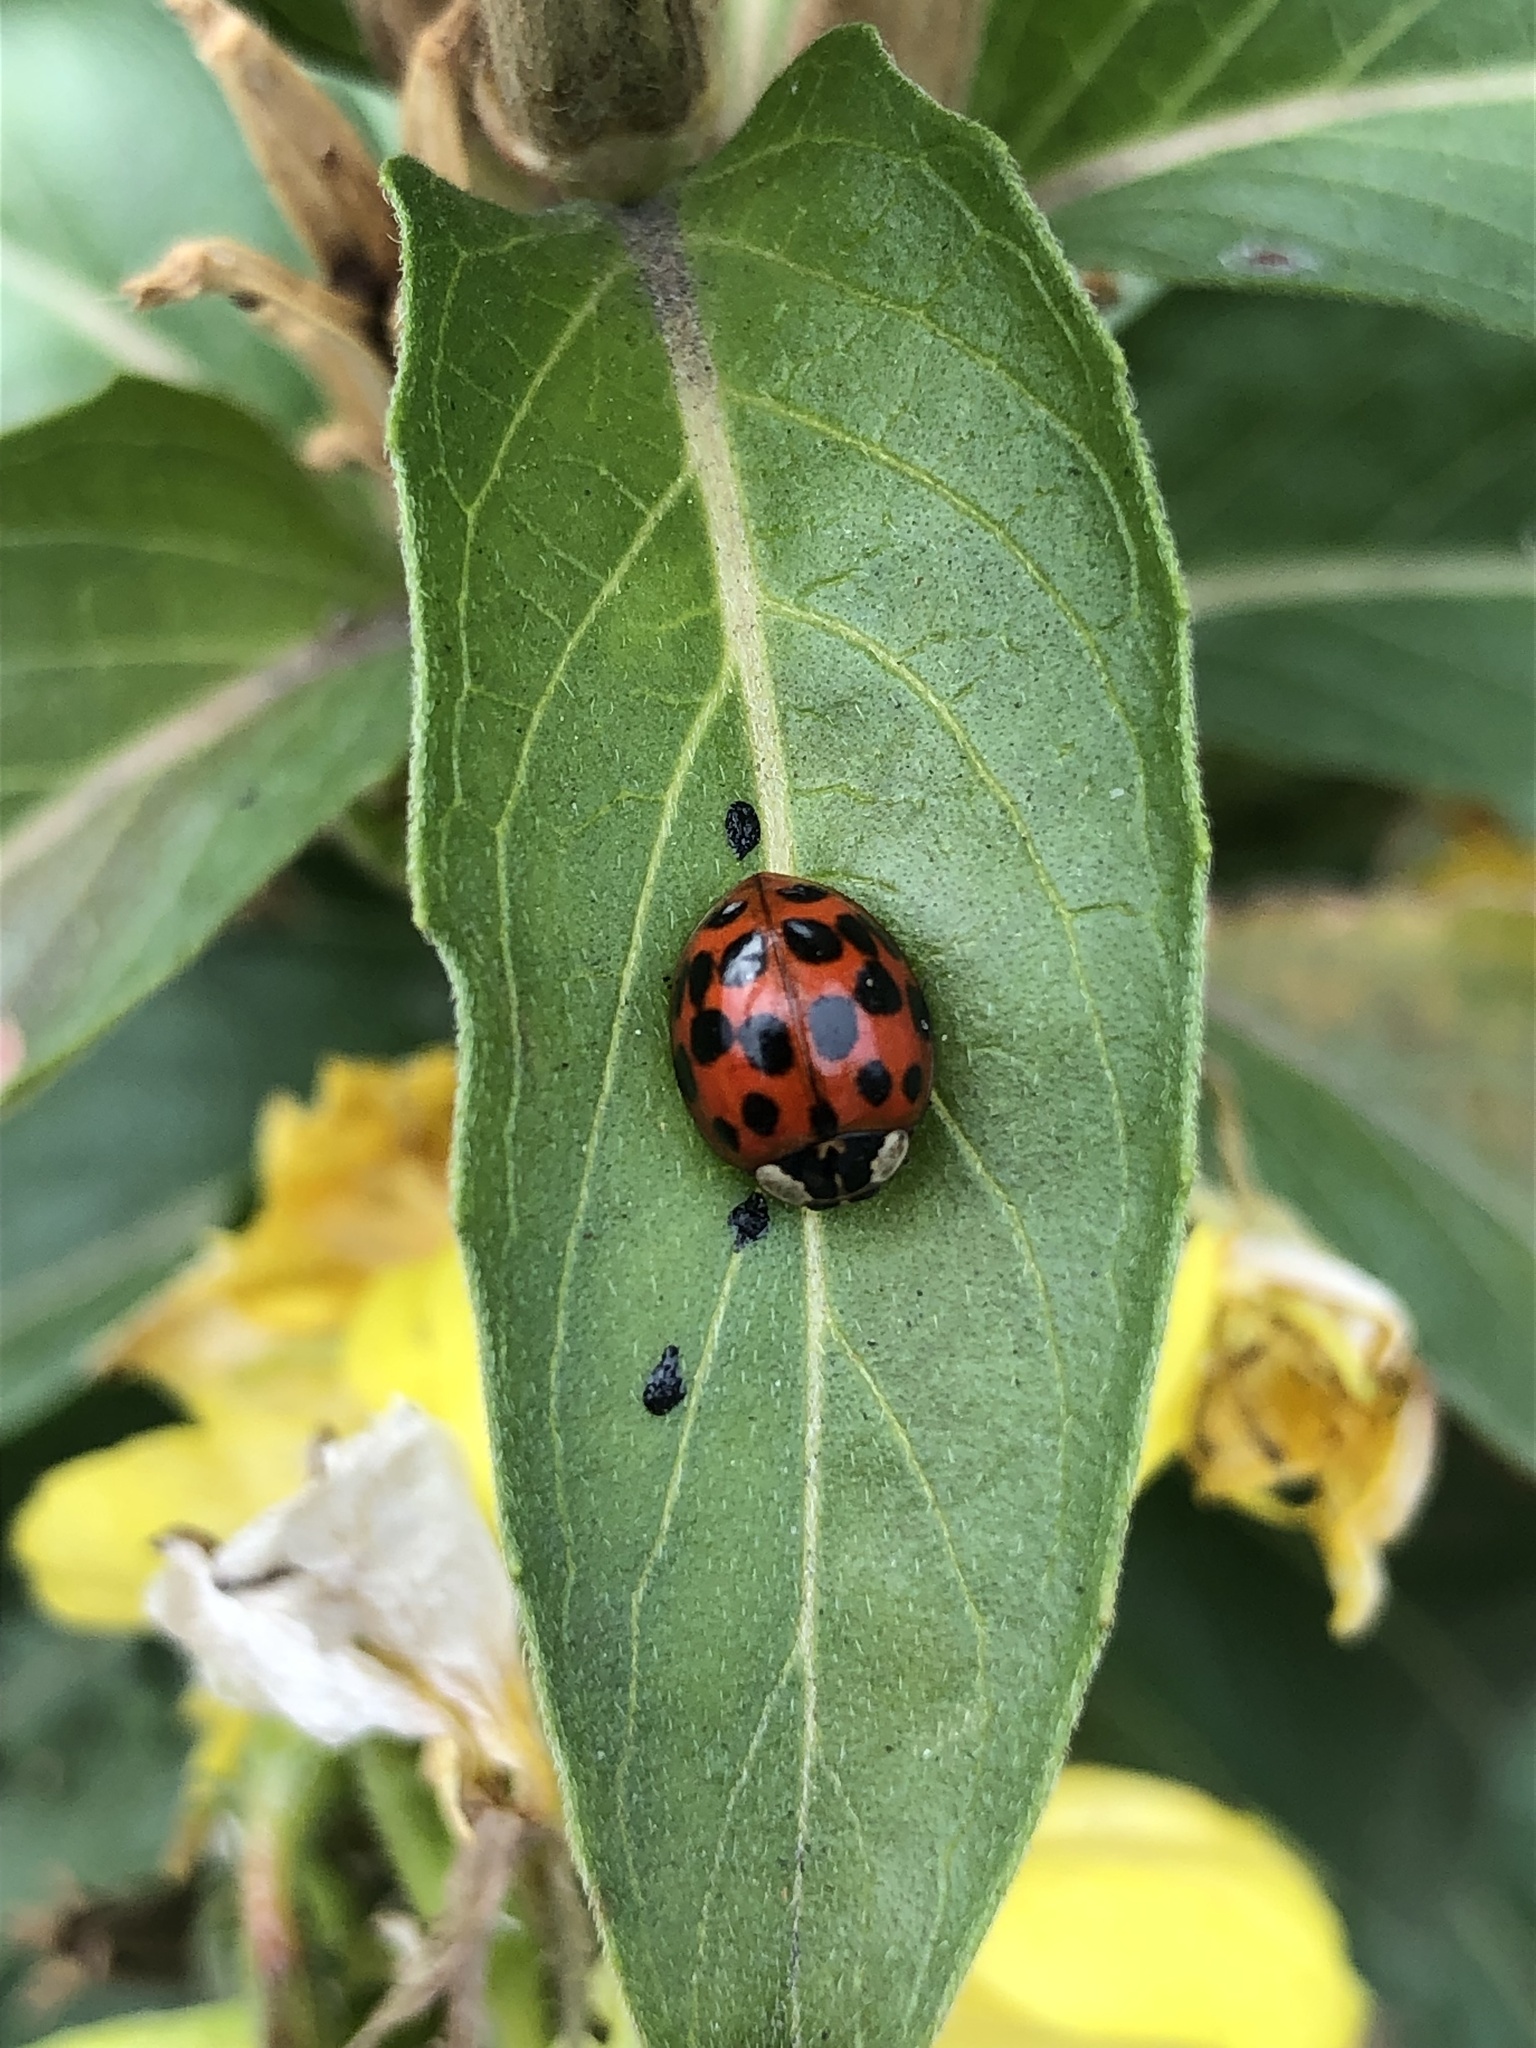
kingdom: Animalia
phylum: Arthropoda
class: Insecta
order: Coleoptera
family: Coccinellidae
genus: Harmonia
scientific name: Harmonia axyridis
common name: Harlequin ladybird
